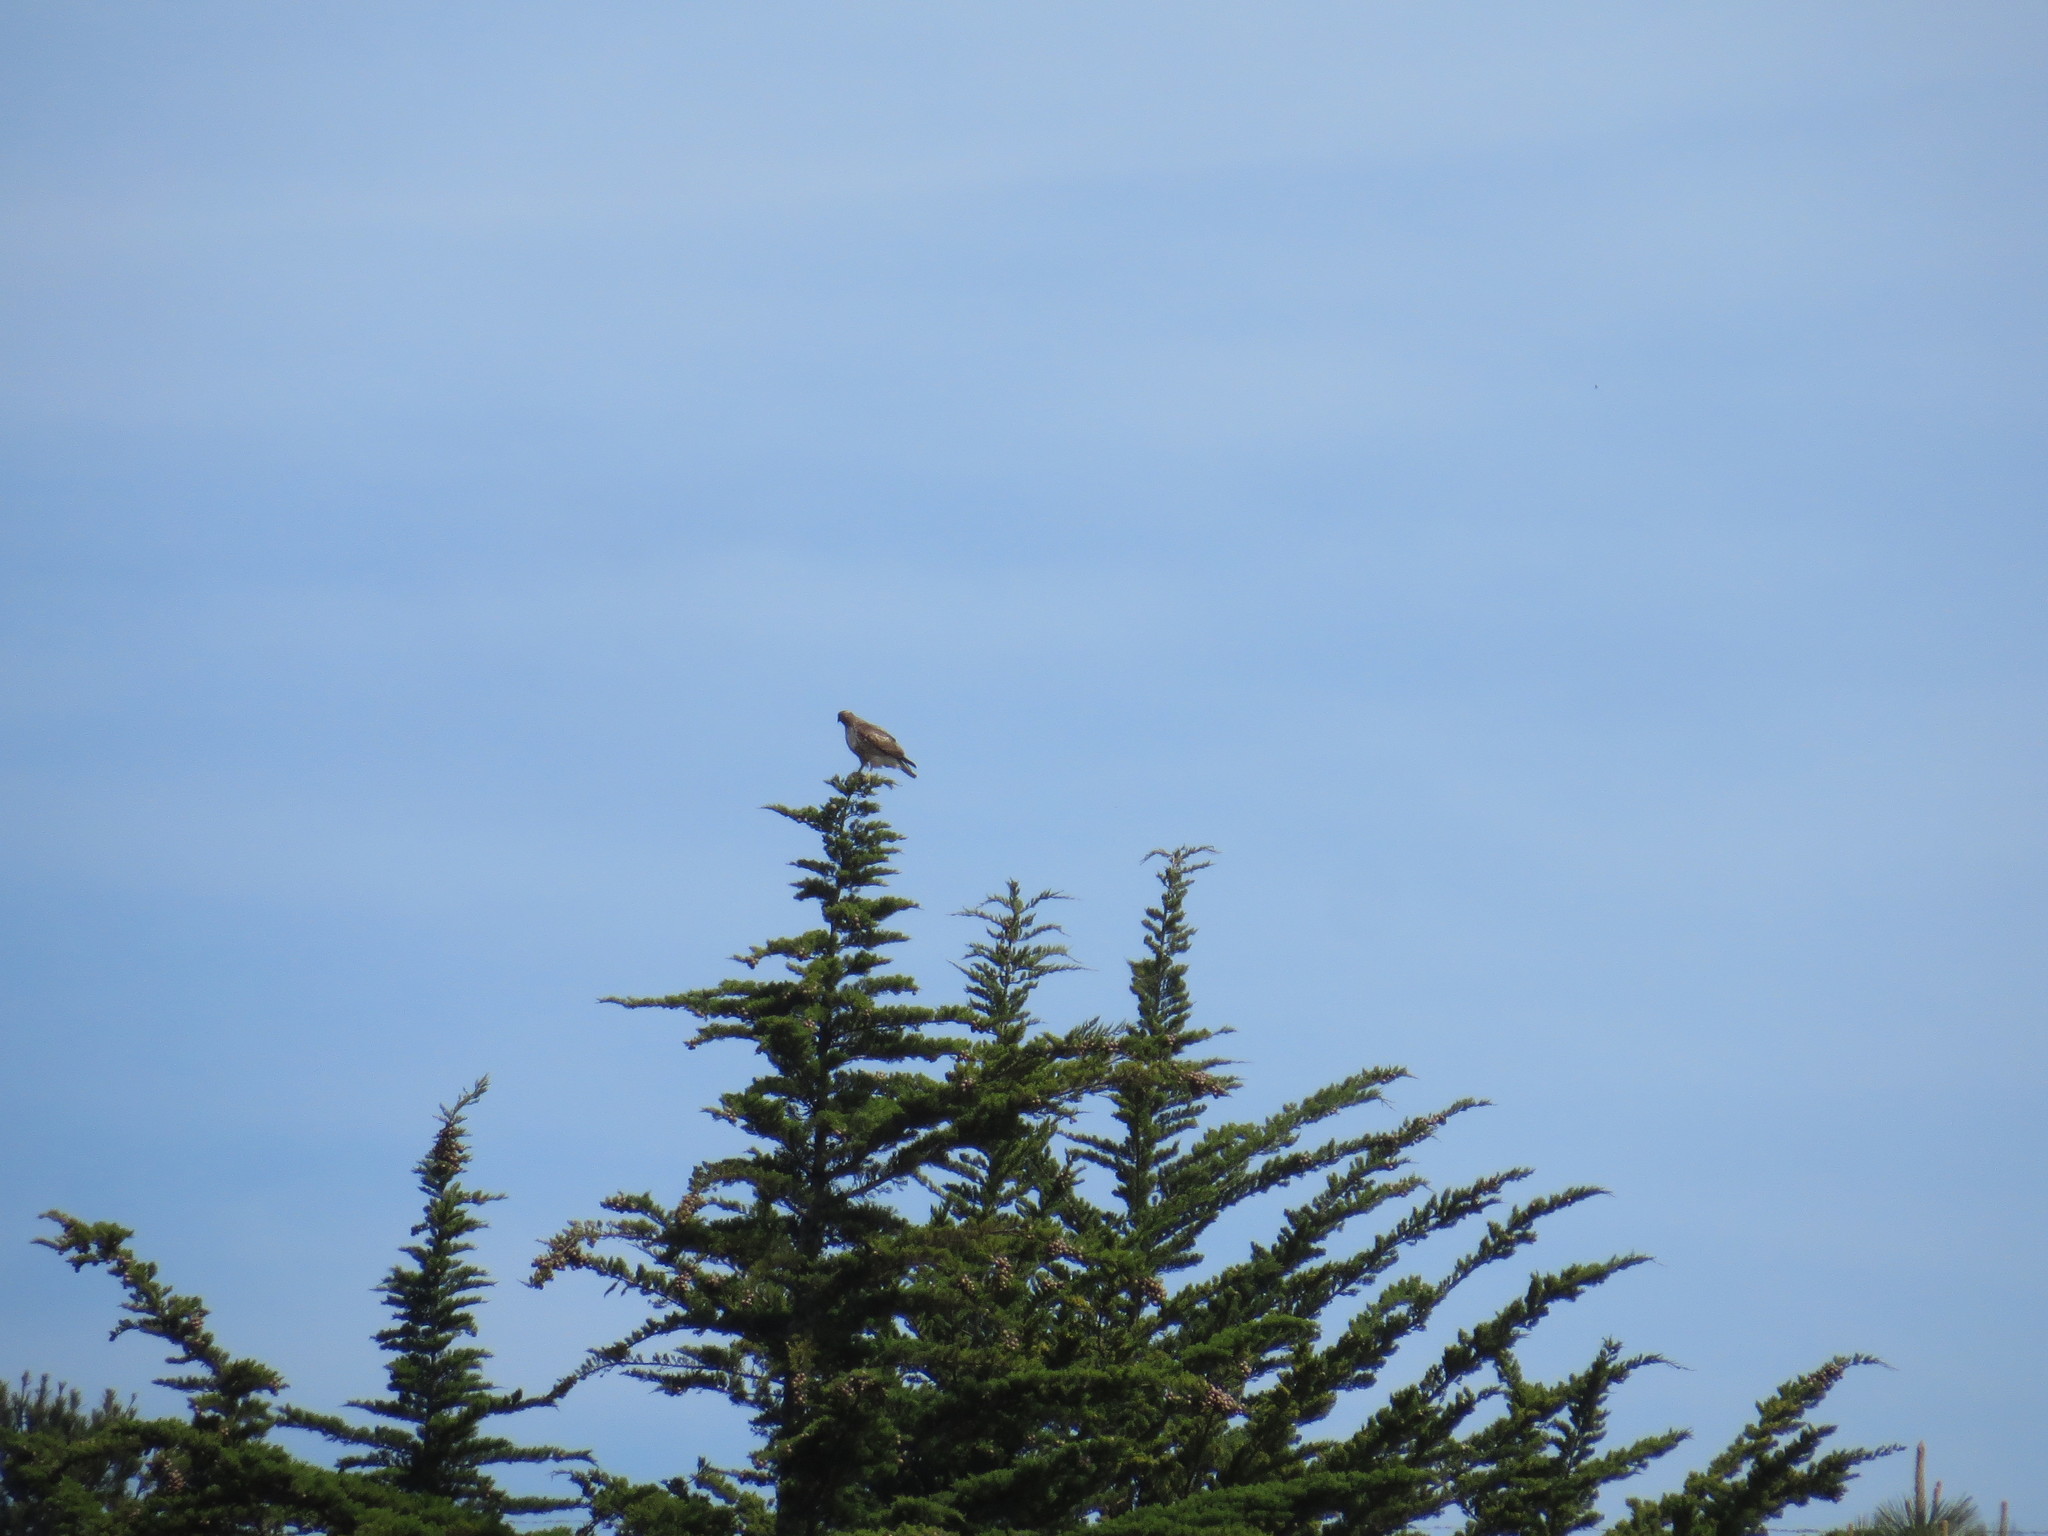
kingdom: Animalia
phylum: Chordata
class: Aves
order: Accipitriformes
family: Accipitridae
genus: Buteo
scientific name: Buteo jamaicensis
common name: Red-tailed hawk
